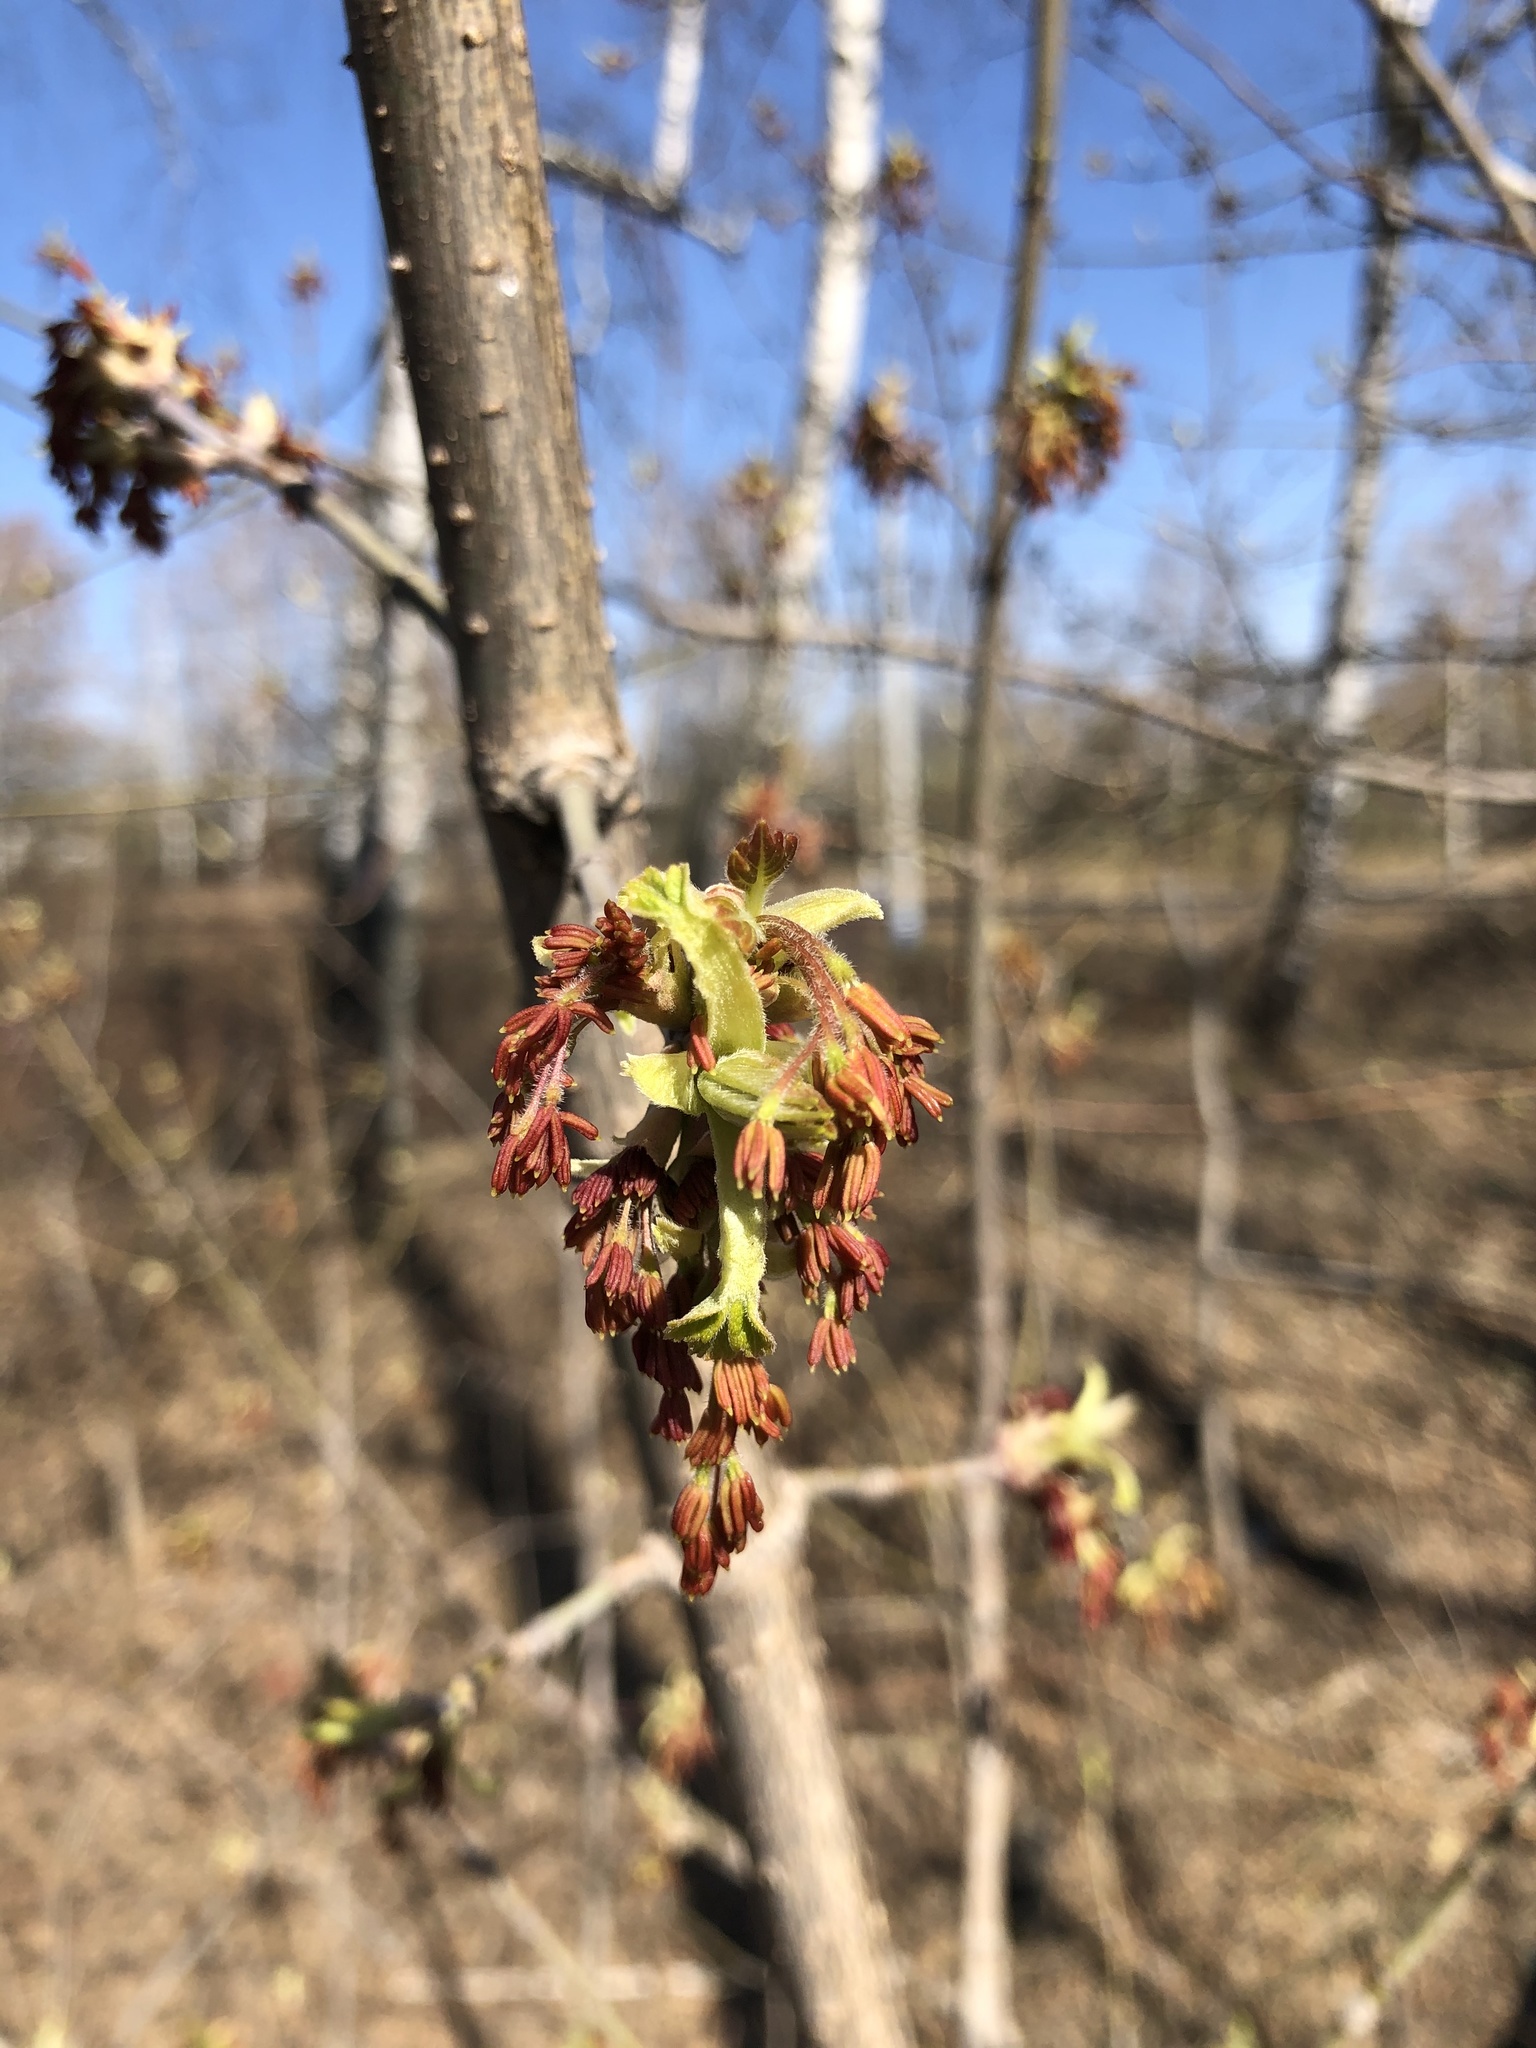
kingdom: Plantae
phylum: Tracheophyta
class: Magnoliopsida
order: Sapindales
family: Sapindaceae
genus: Acer
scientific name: Acer negundo
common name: Ashleaf maple
